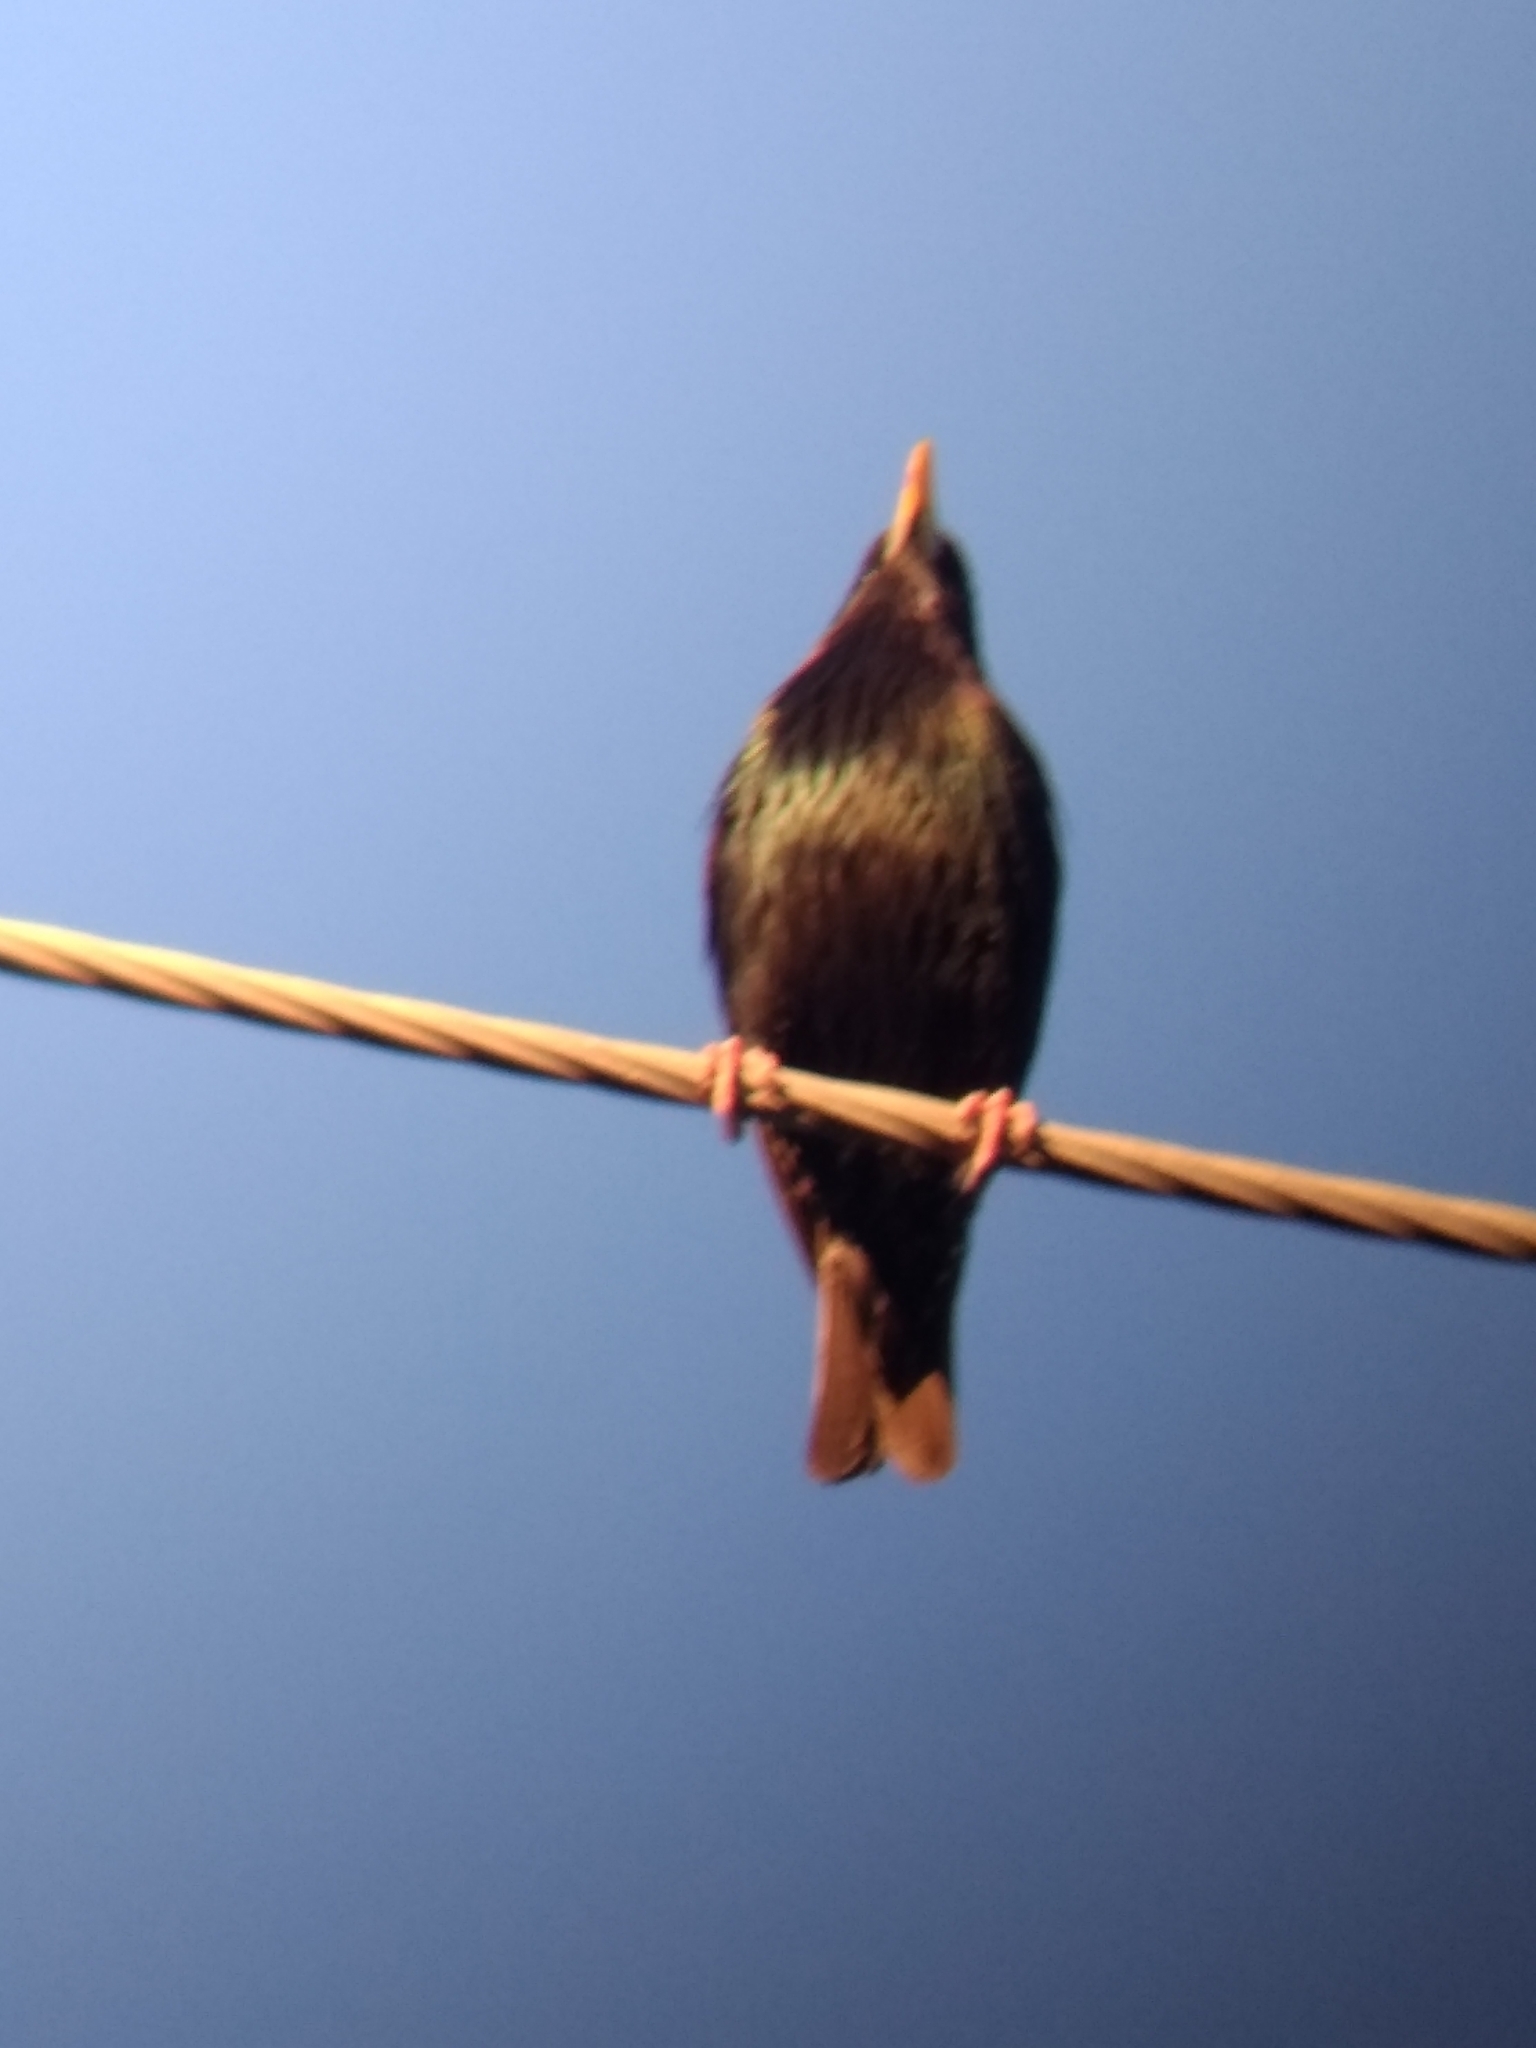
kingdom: Animalia
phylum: Chordata
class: Aves
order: Passeriformes
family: Sturnidae
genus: Sturnus
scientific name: Sturnus vulgaris
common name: Common starling
